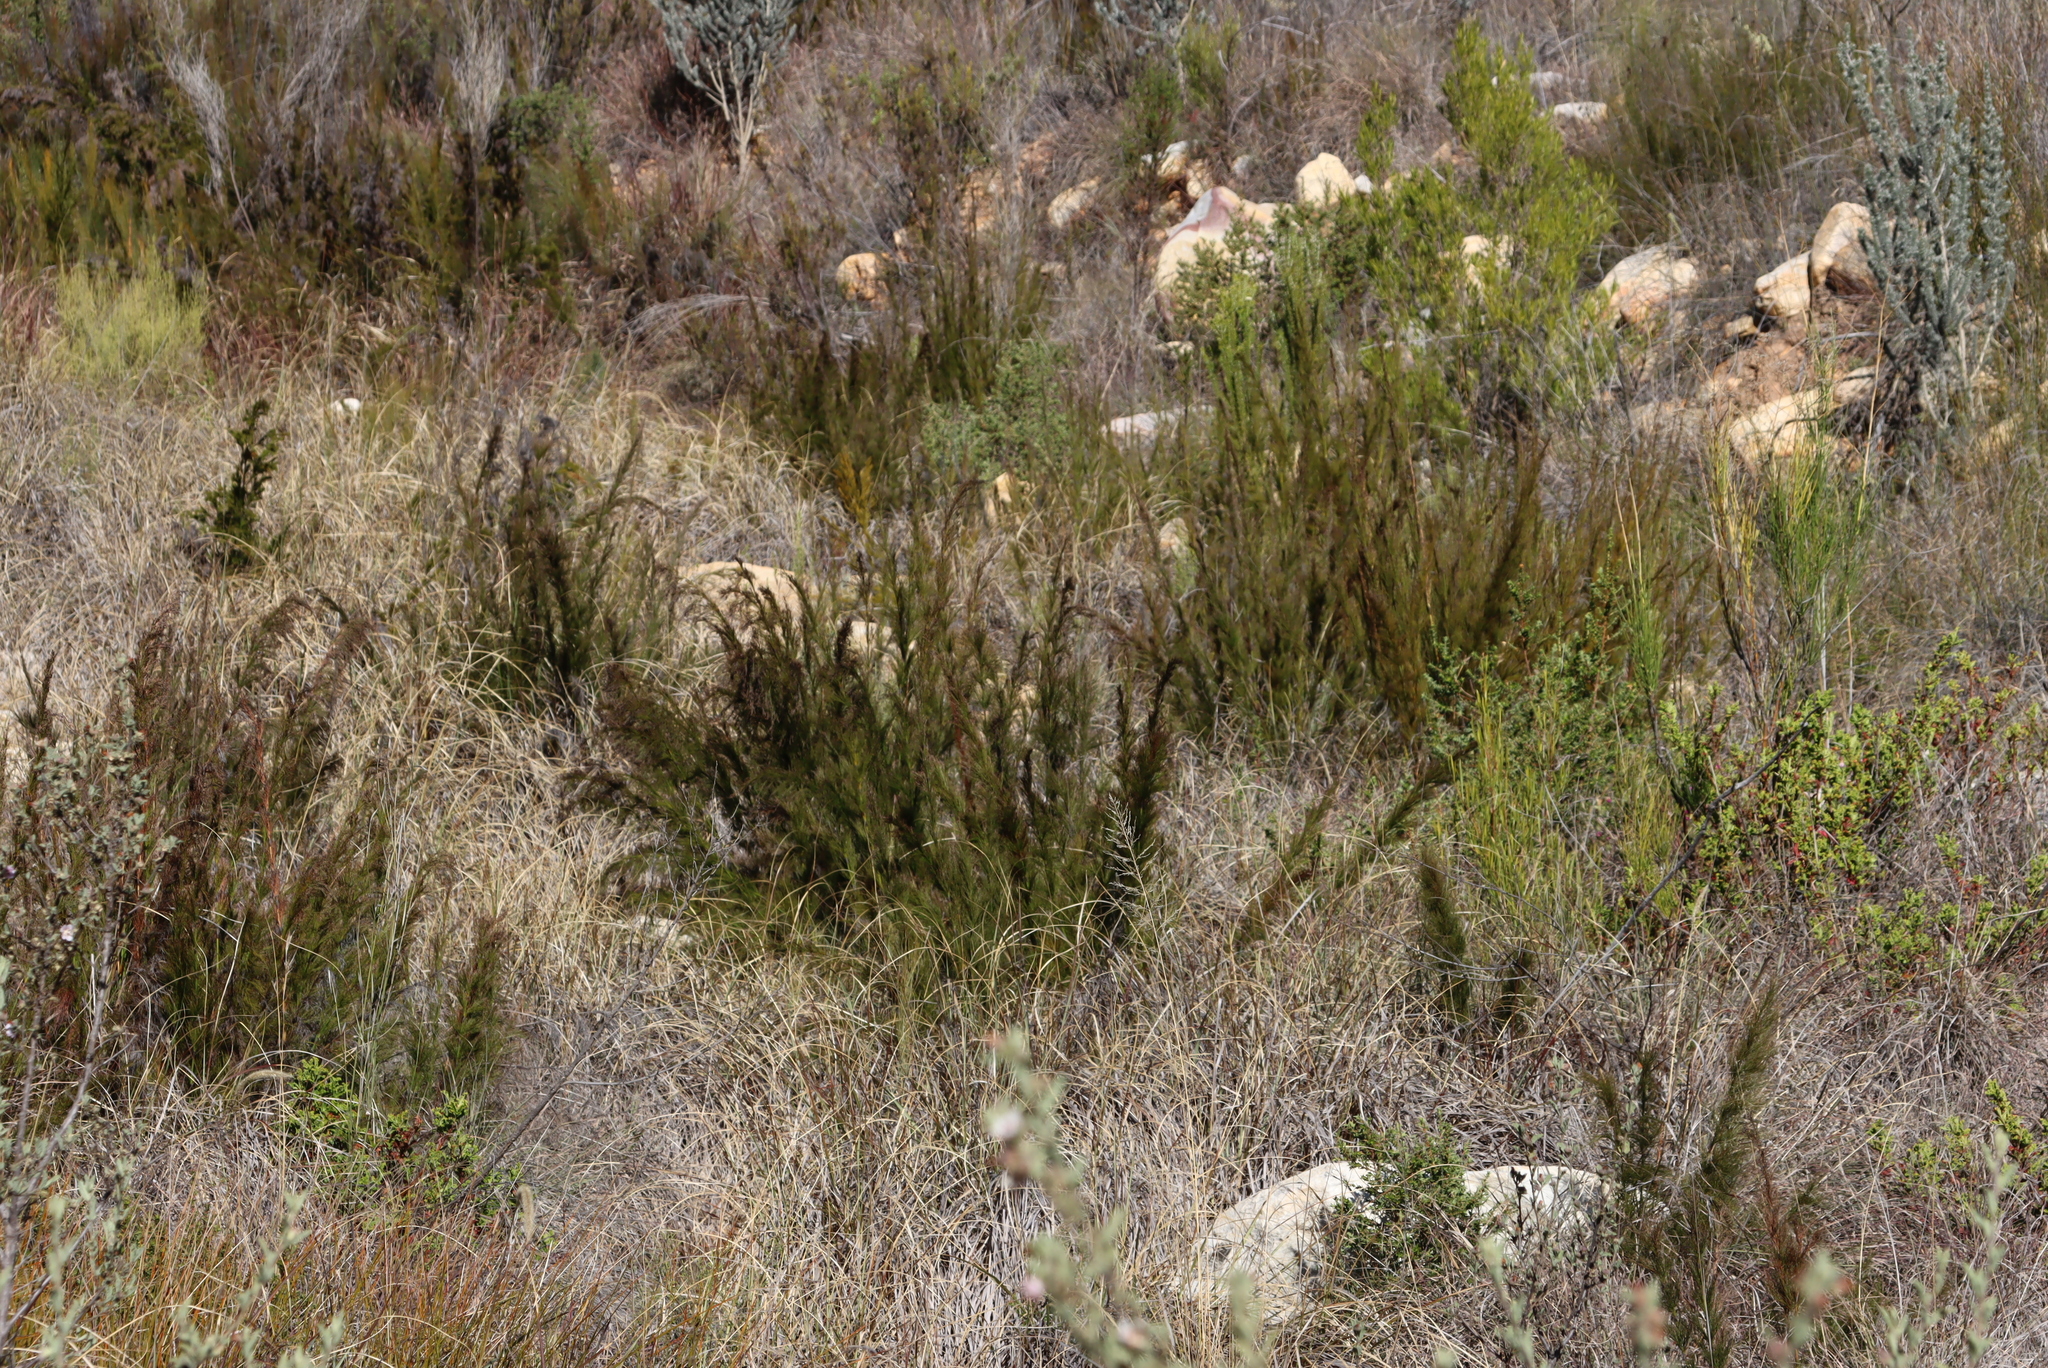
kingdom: Plantae
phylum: Tracheophyta
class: Liliopsida
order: Poales
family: Restionaceae
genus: Rhodocoma
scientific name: Rhodocoma capensis
